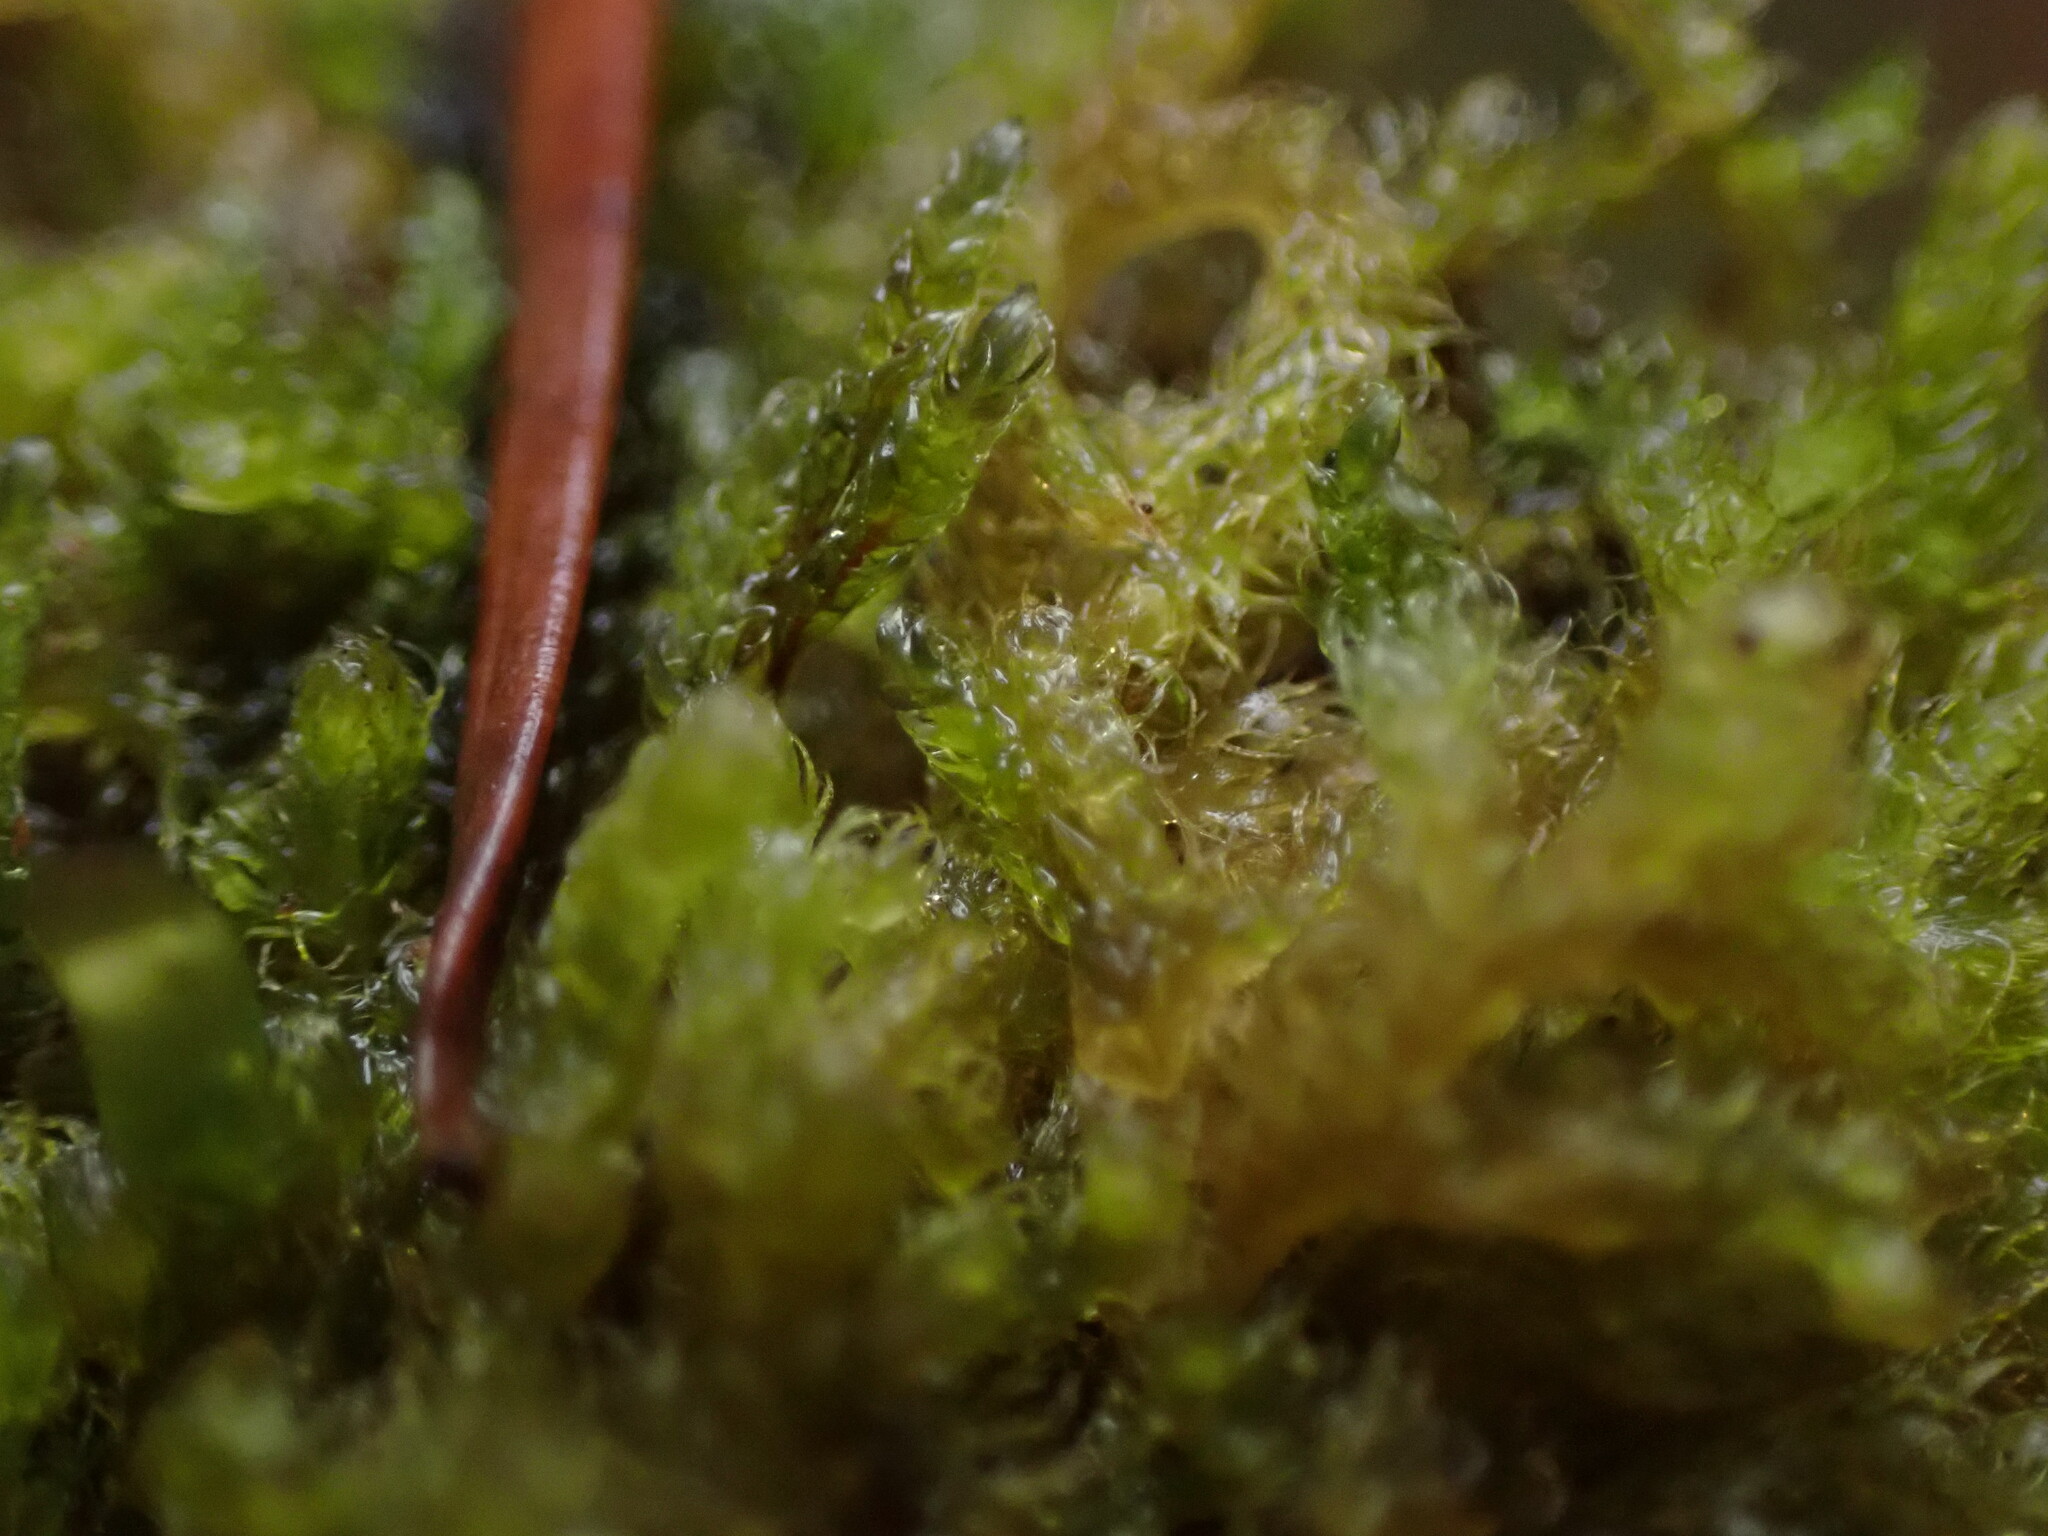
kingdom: Plantae
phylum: Marchantiophyta
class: Jungermanniopsida
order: Ptilidiales
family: Ptilidiaceae
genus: Ptilidium
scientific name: Ptilidium californicum
